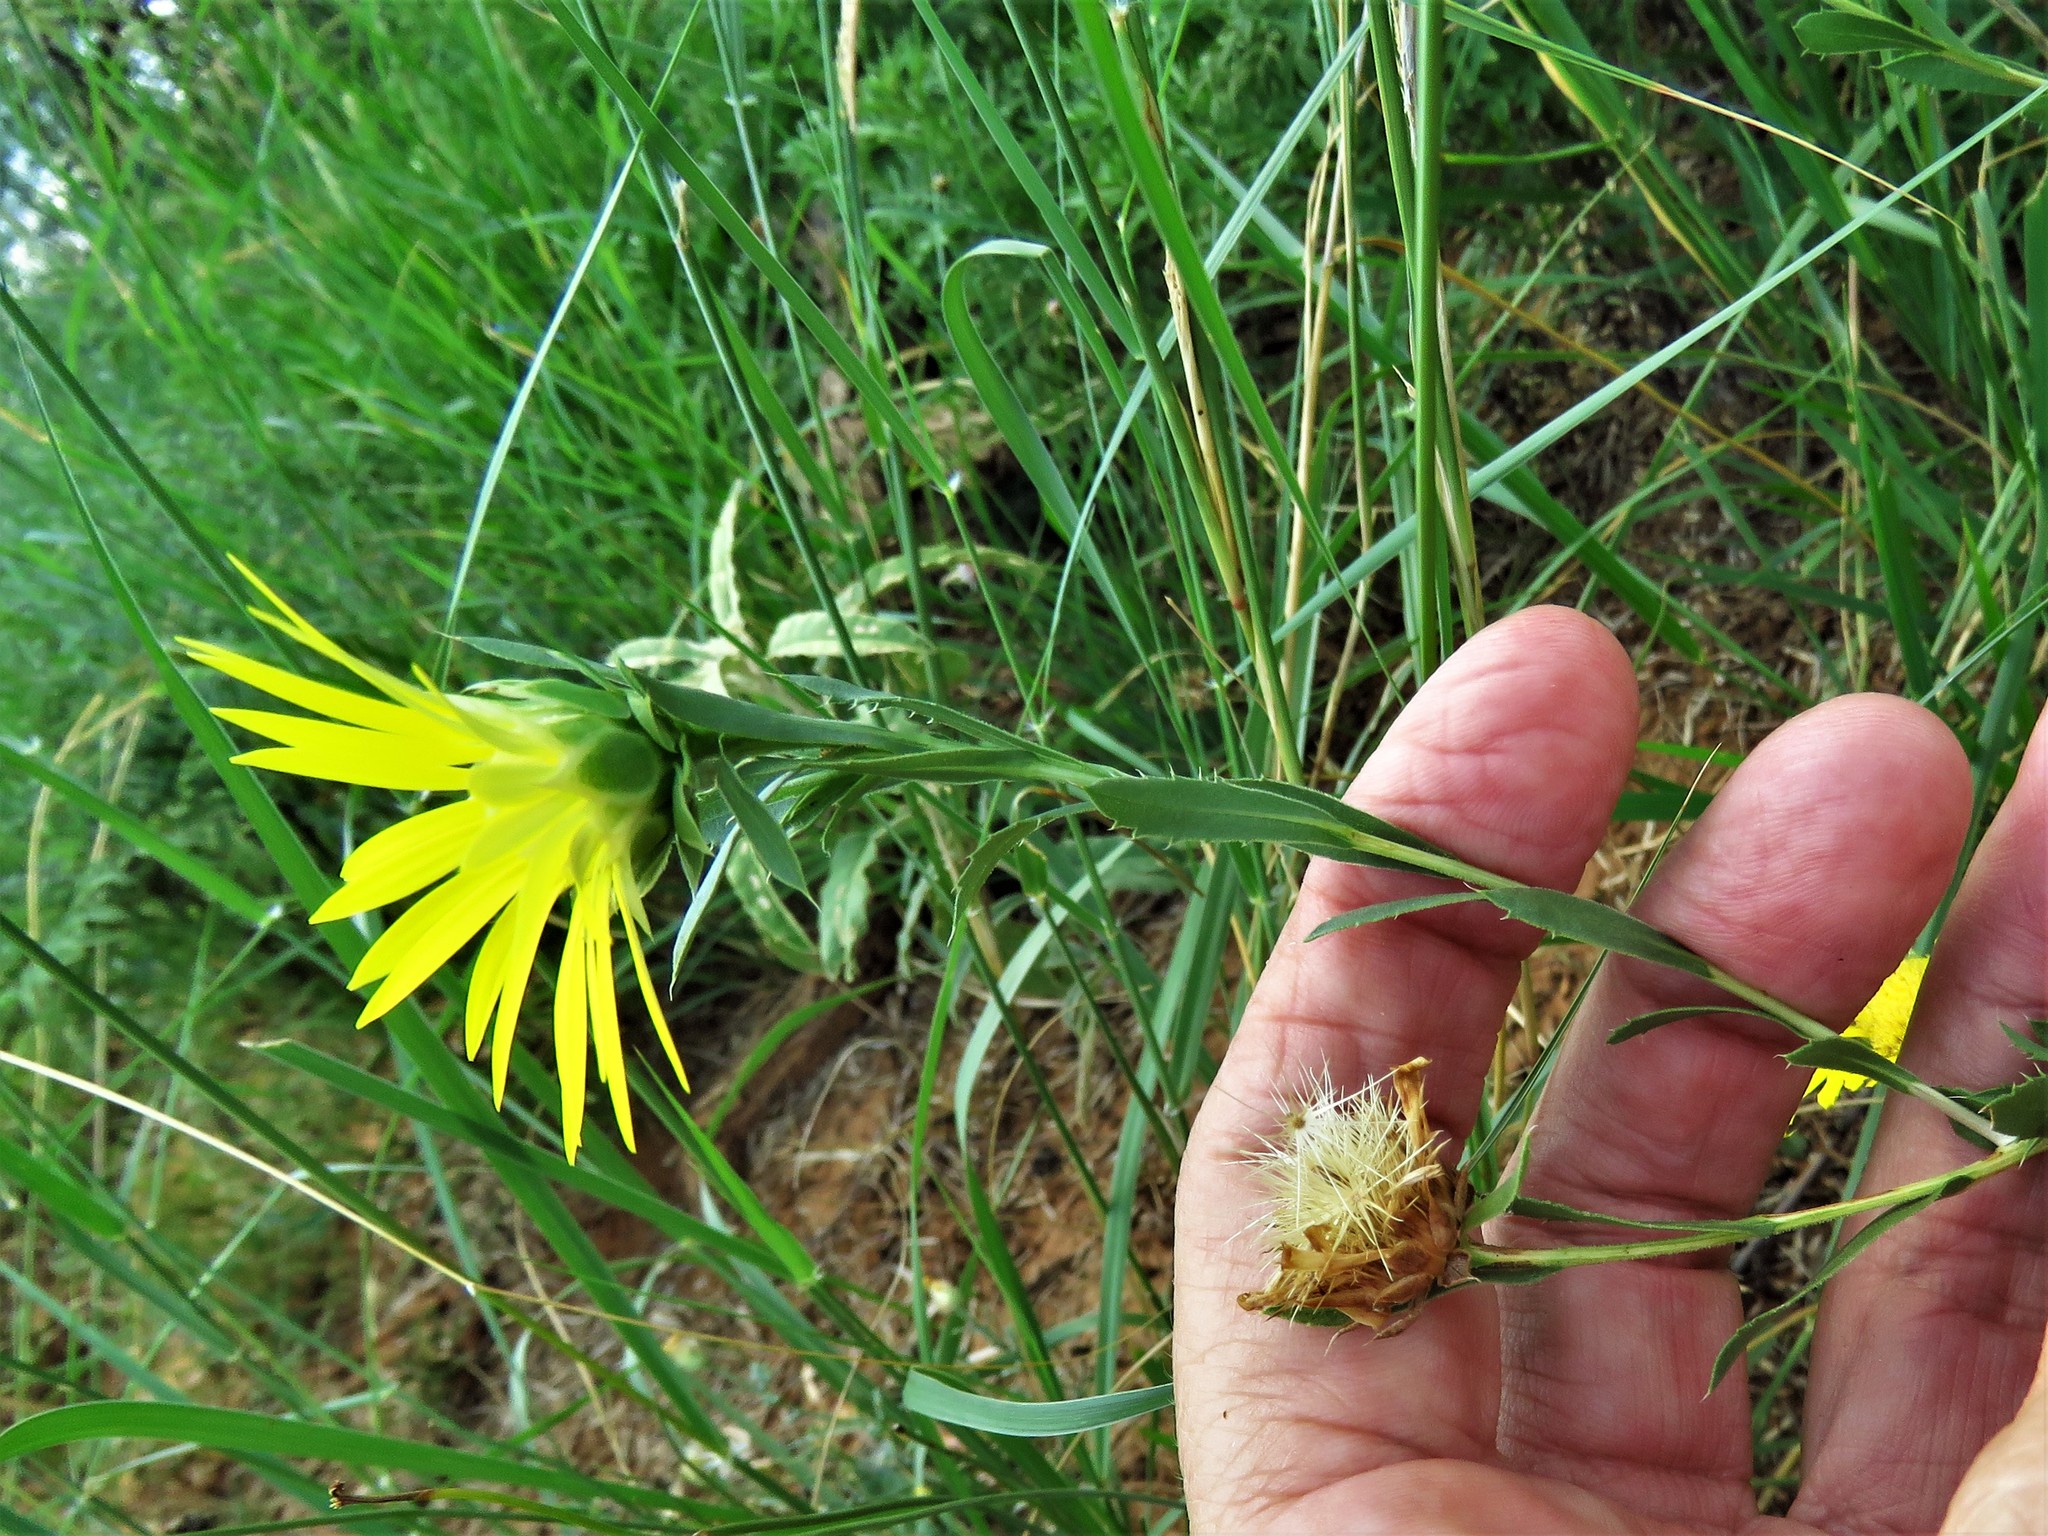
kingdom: Plantae
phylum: Tracheophyta
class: Magnoliopsida
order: Asterales
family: Asteraceae
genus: Xanthisma
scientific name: Xanthisma texanum
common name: Texas sleepy daisy
